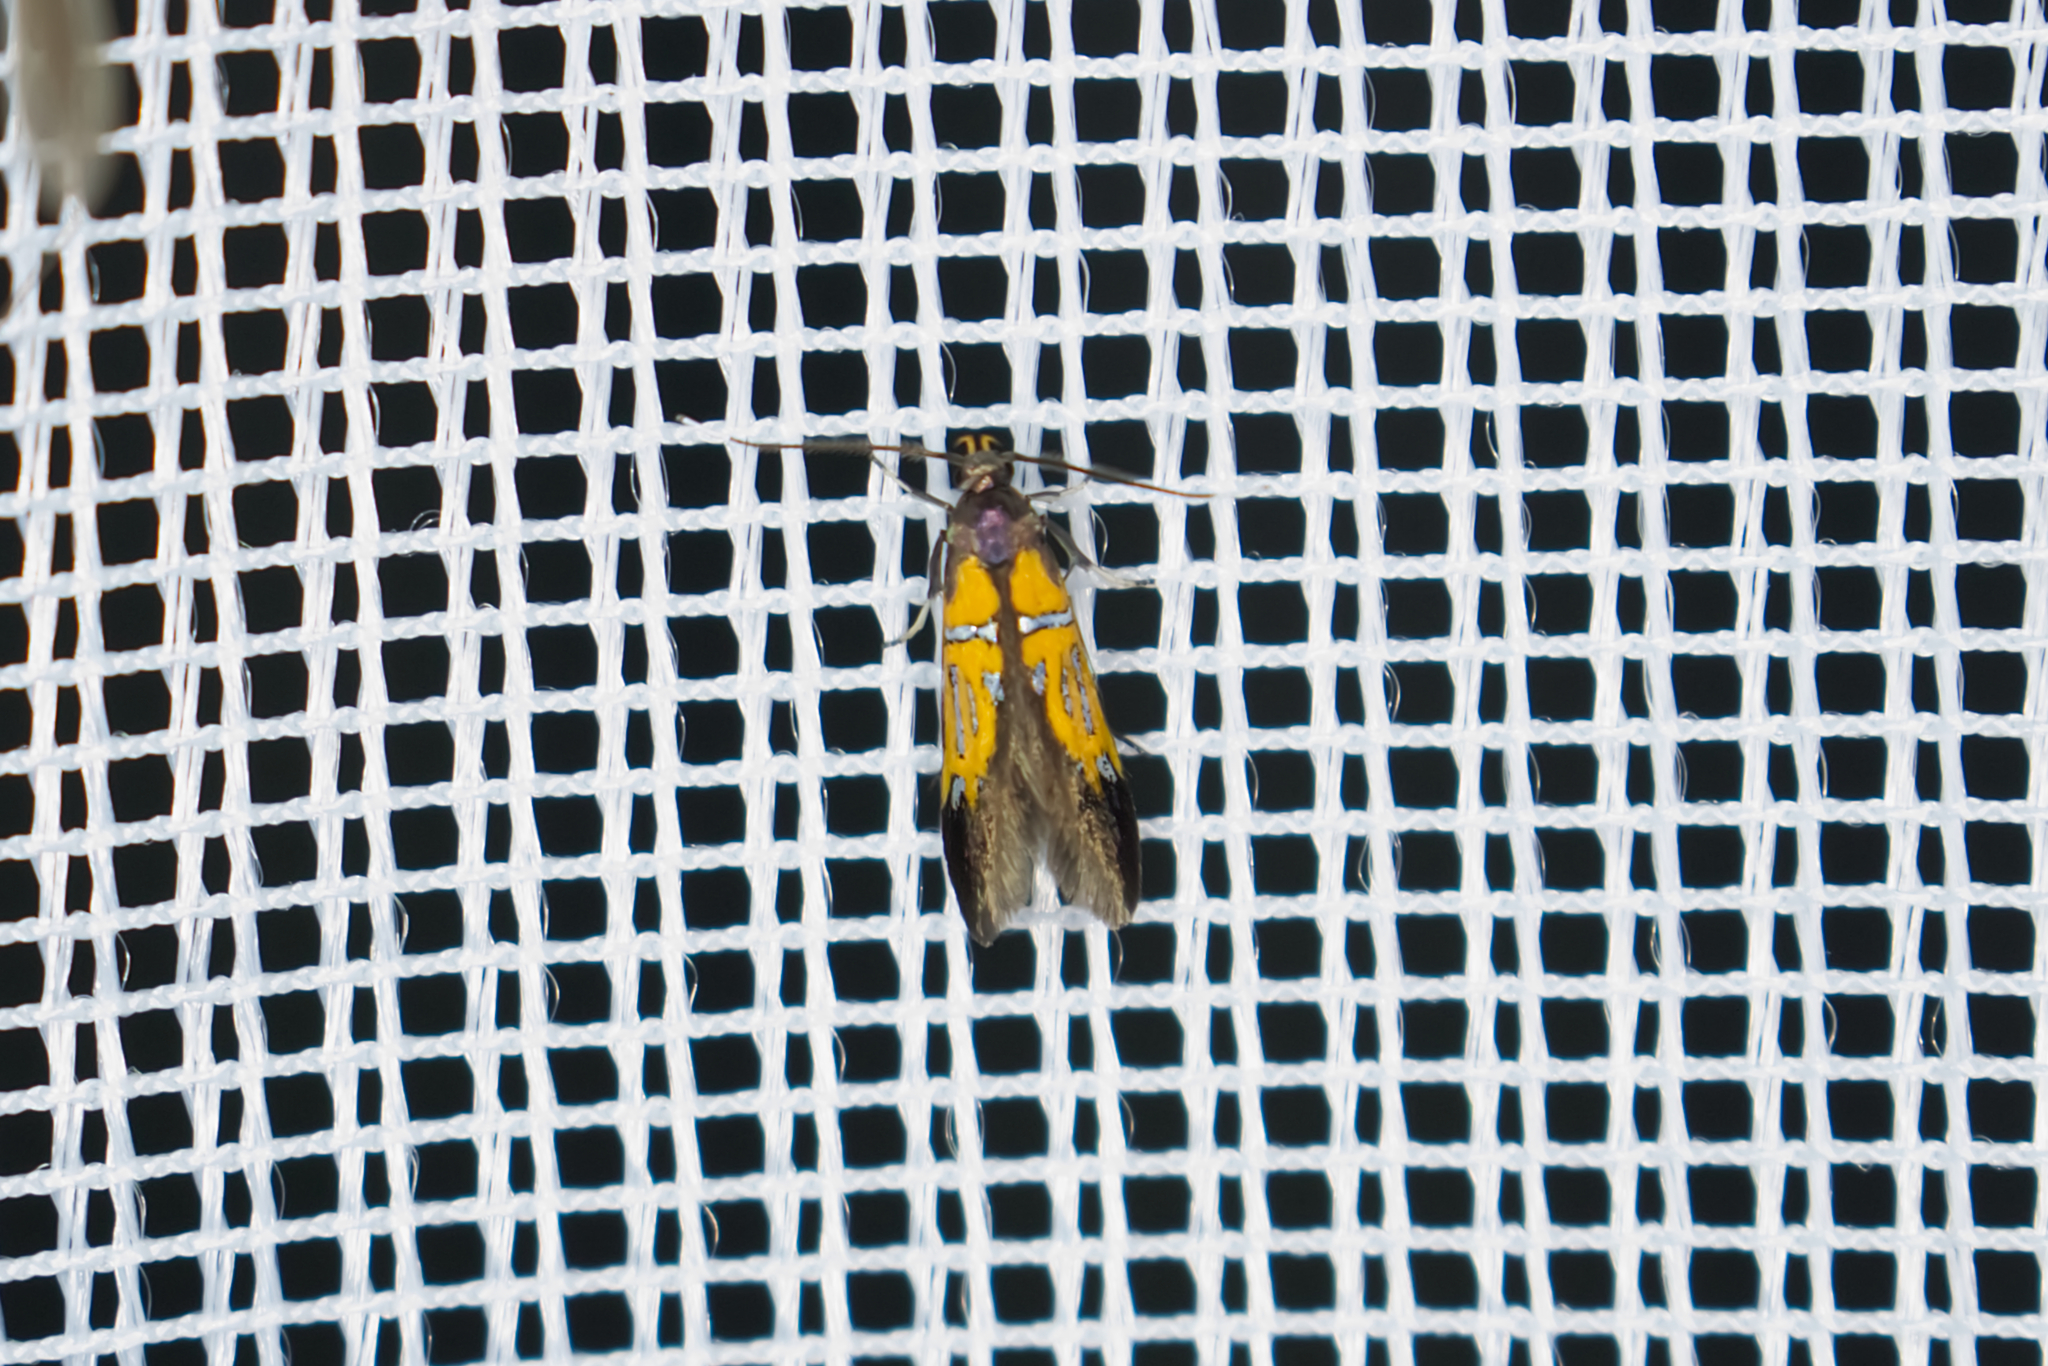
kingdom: Animalia
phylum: Arthropoda
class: Insecta
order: Lepidoptera
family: Oecophoridae
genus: Schiffermuelleria
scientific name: Schiffermuelleria schaefferella
